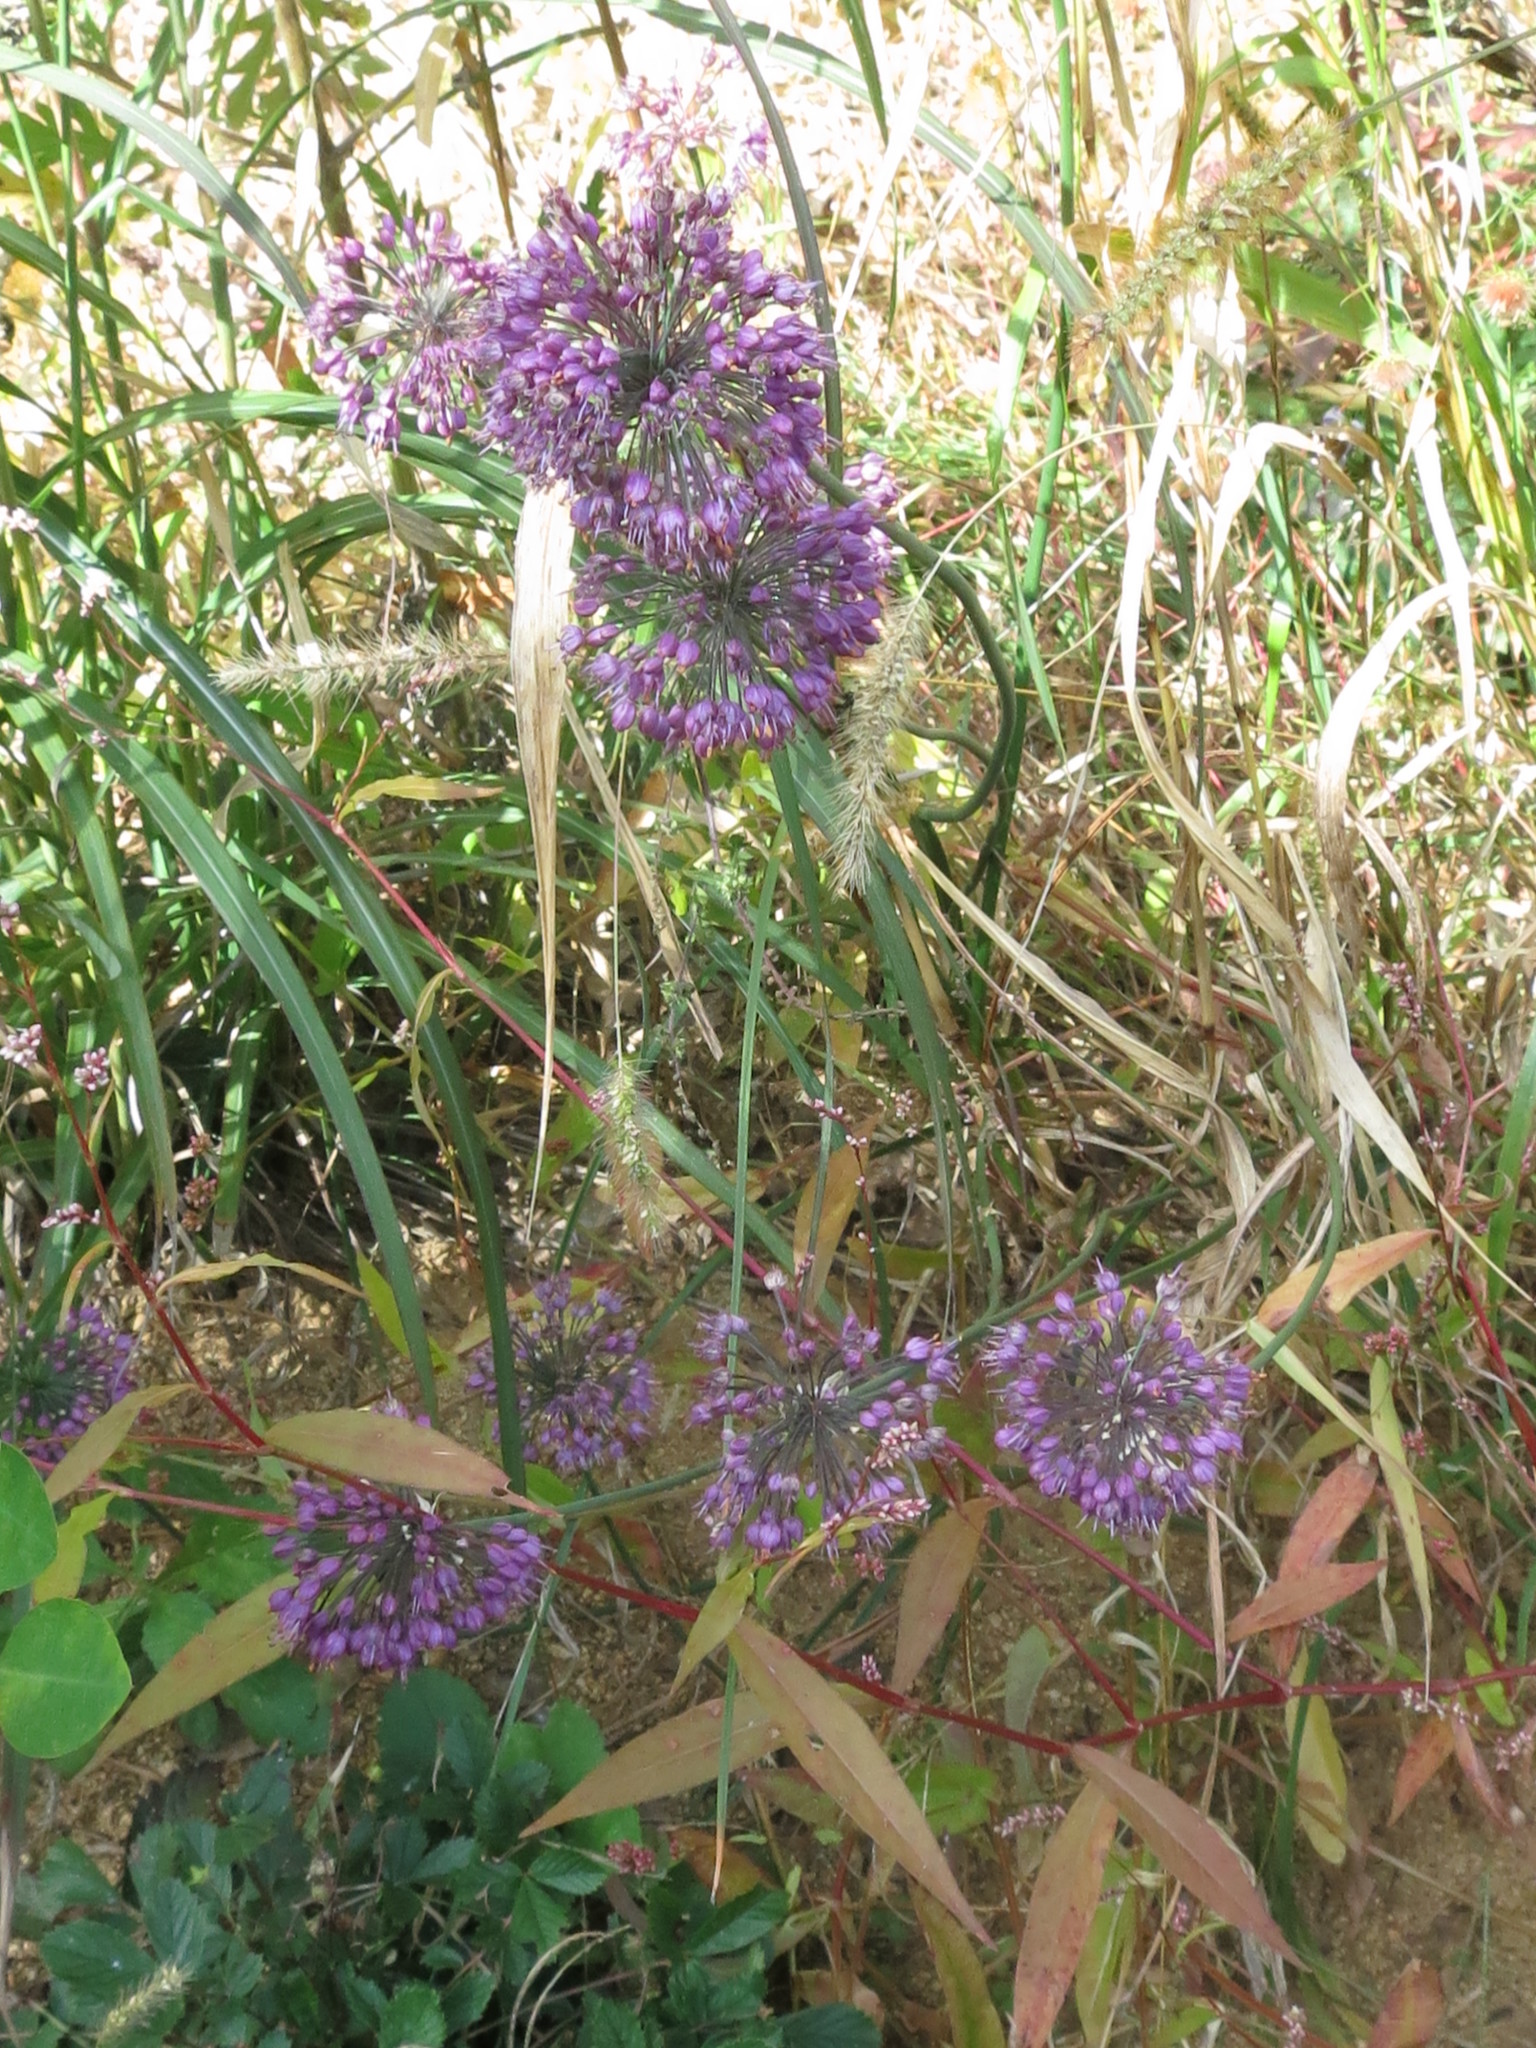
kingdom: Plantae
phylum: Tracheophyta
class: Liliopsida
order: Asparagales
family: Amaryllidaceae
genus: Allium
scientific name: Allium sacculiferum
